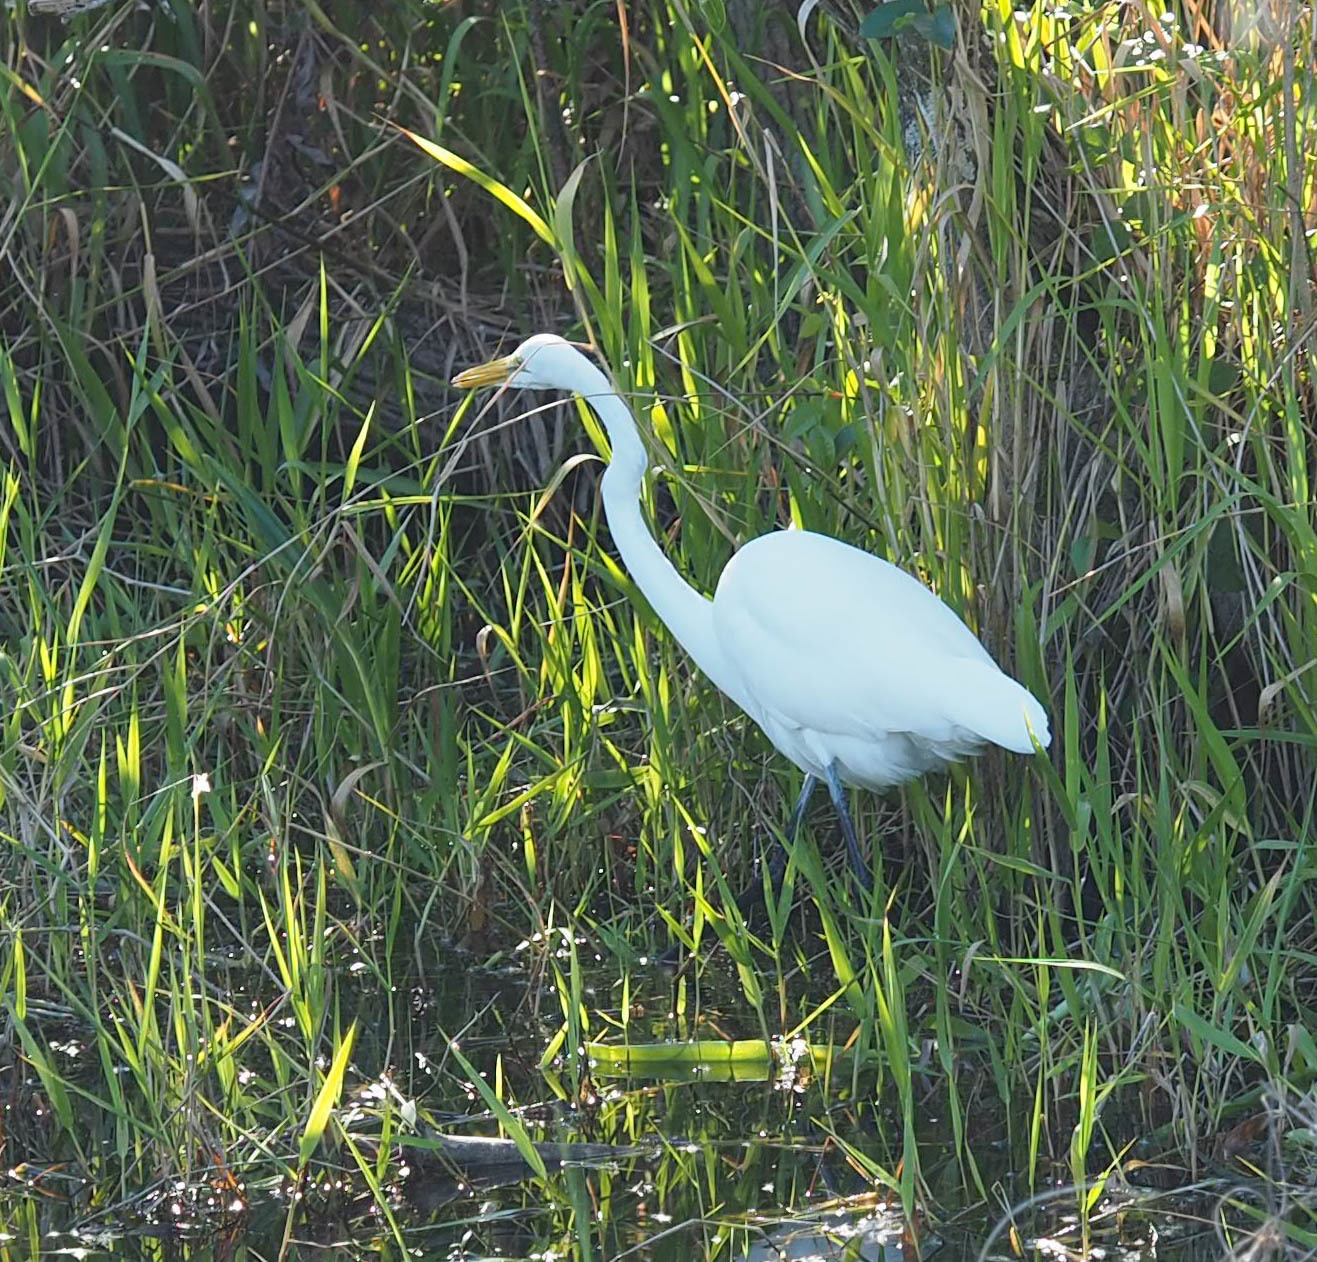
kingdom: Animalia
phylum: Chordata
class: Aves
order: Pelecaniformes
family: Ardeidae
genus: Ardea
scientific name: Ardea alba
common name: Great egret
